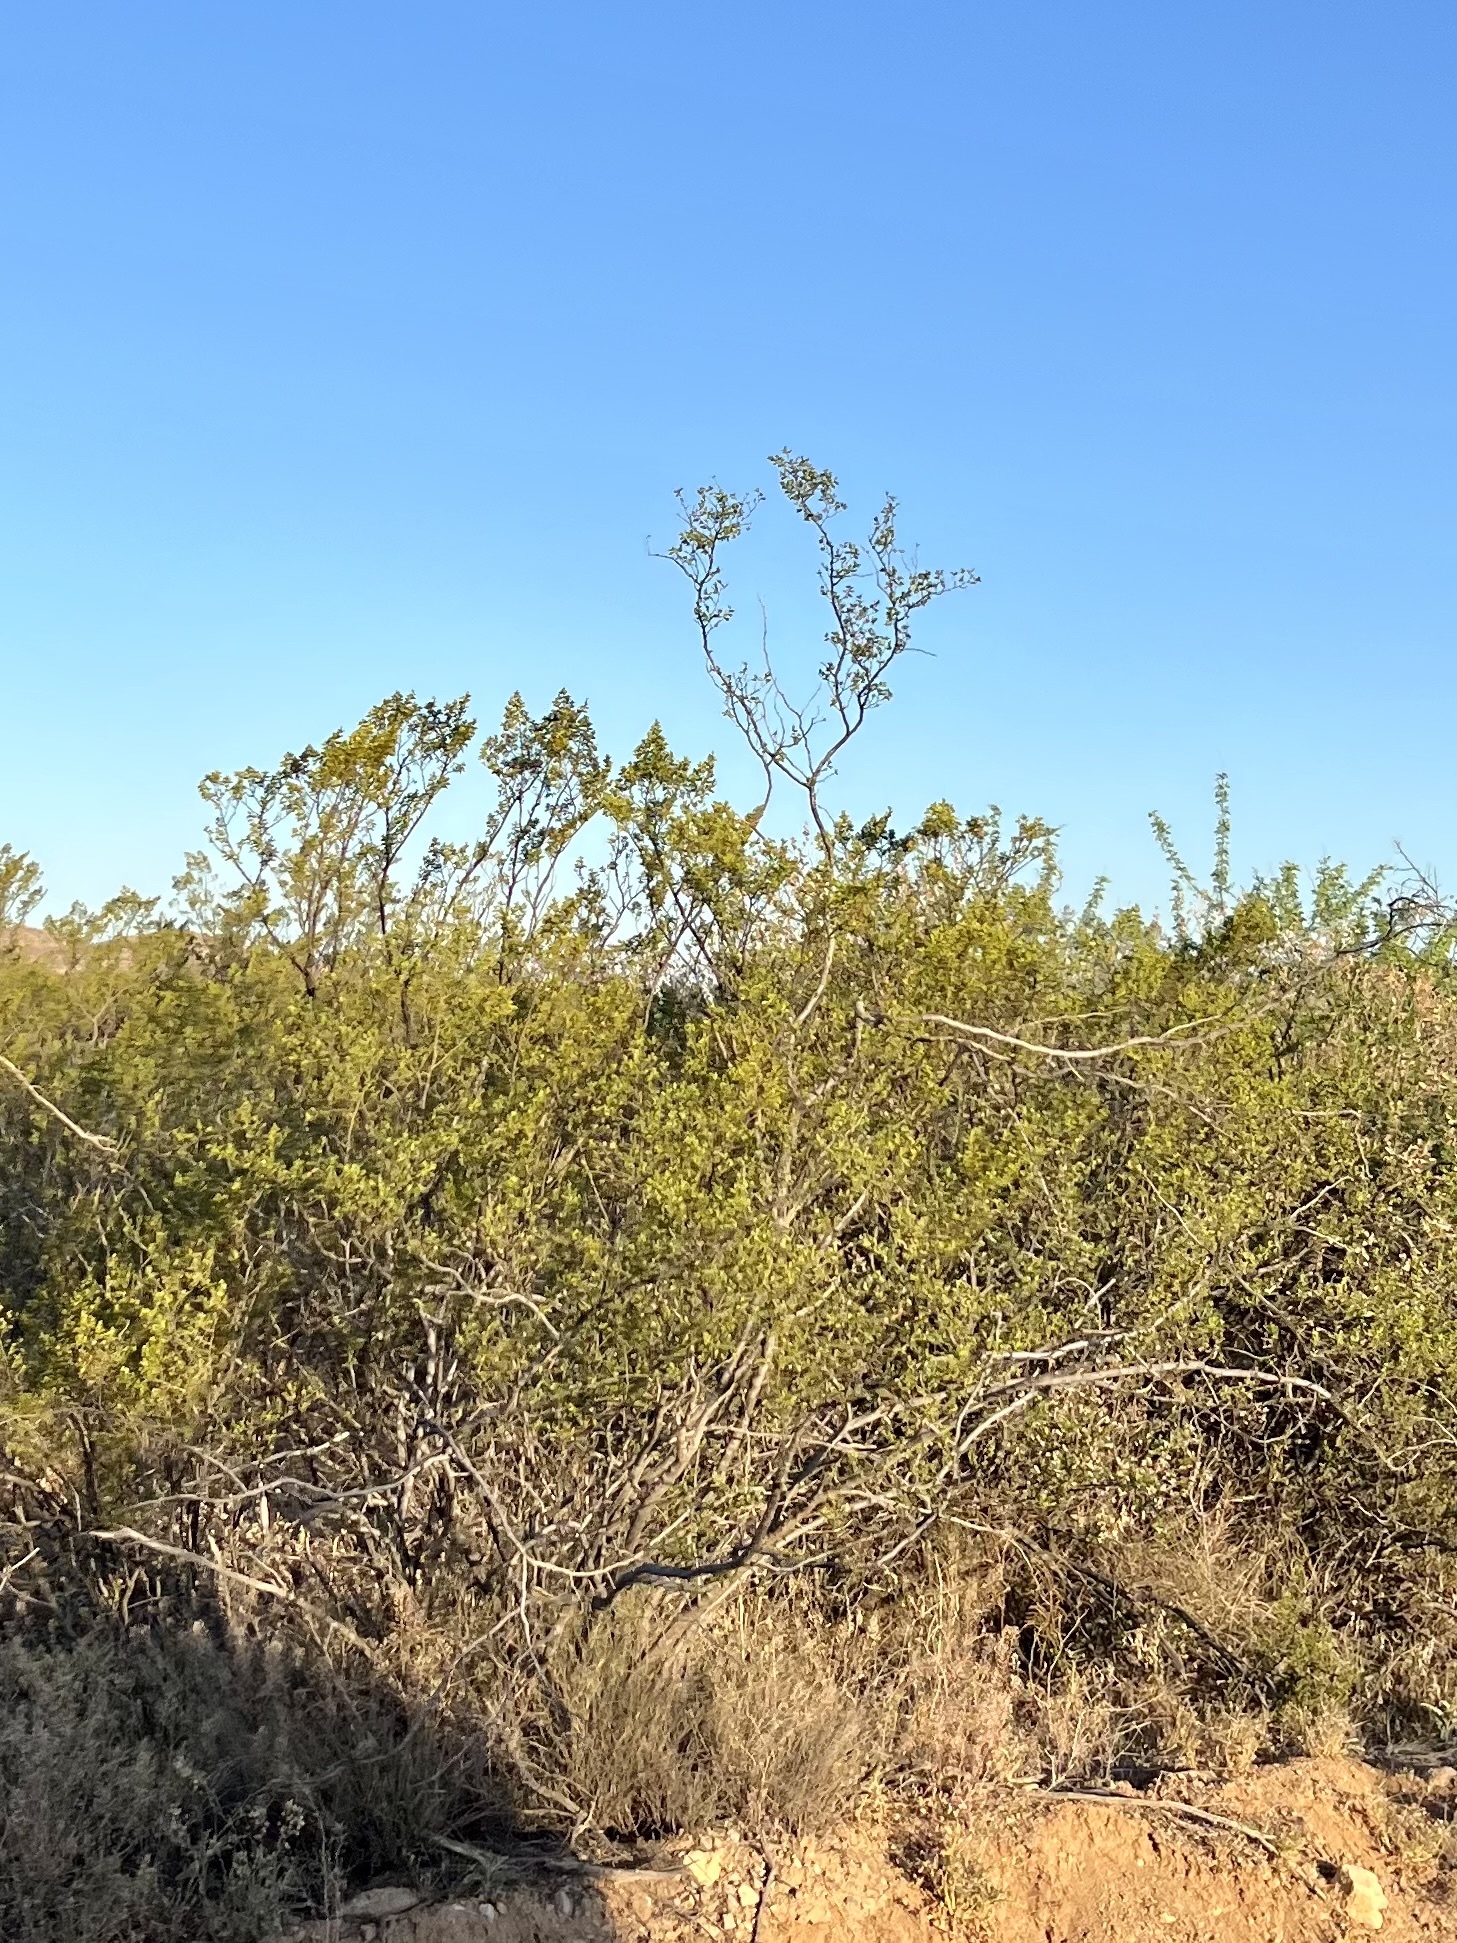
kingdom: Plantae
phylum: Tracheophyta
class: Magnoliopsida
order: Zygophyllales
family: Zygophyllaceae
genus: Larrea
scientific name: Larrea tridentata
